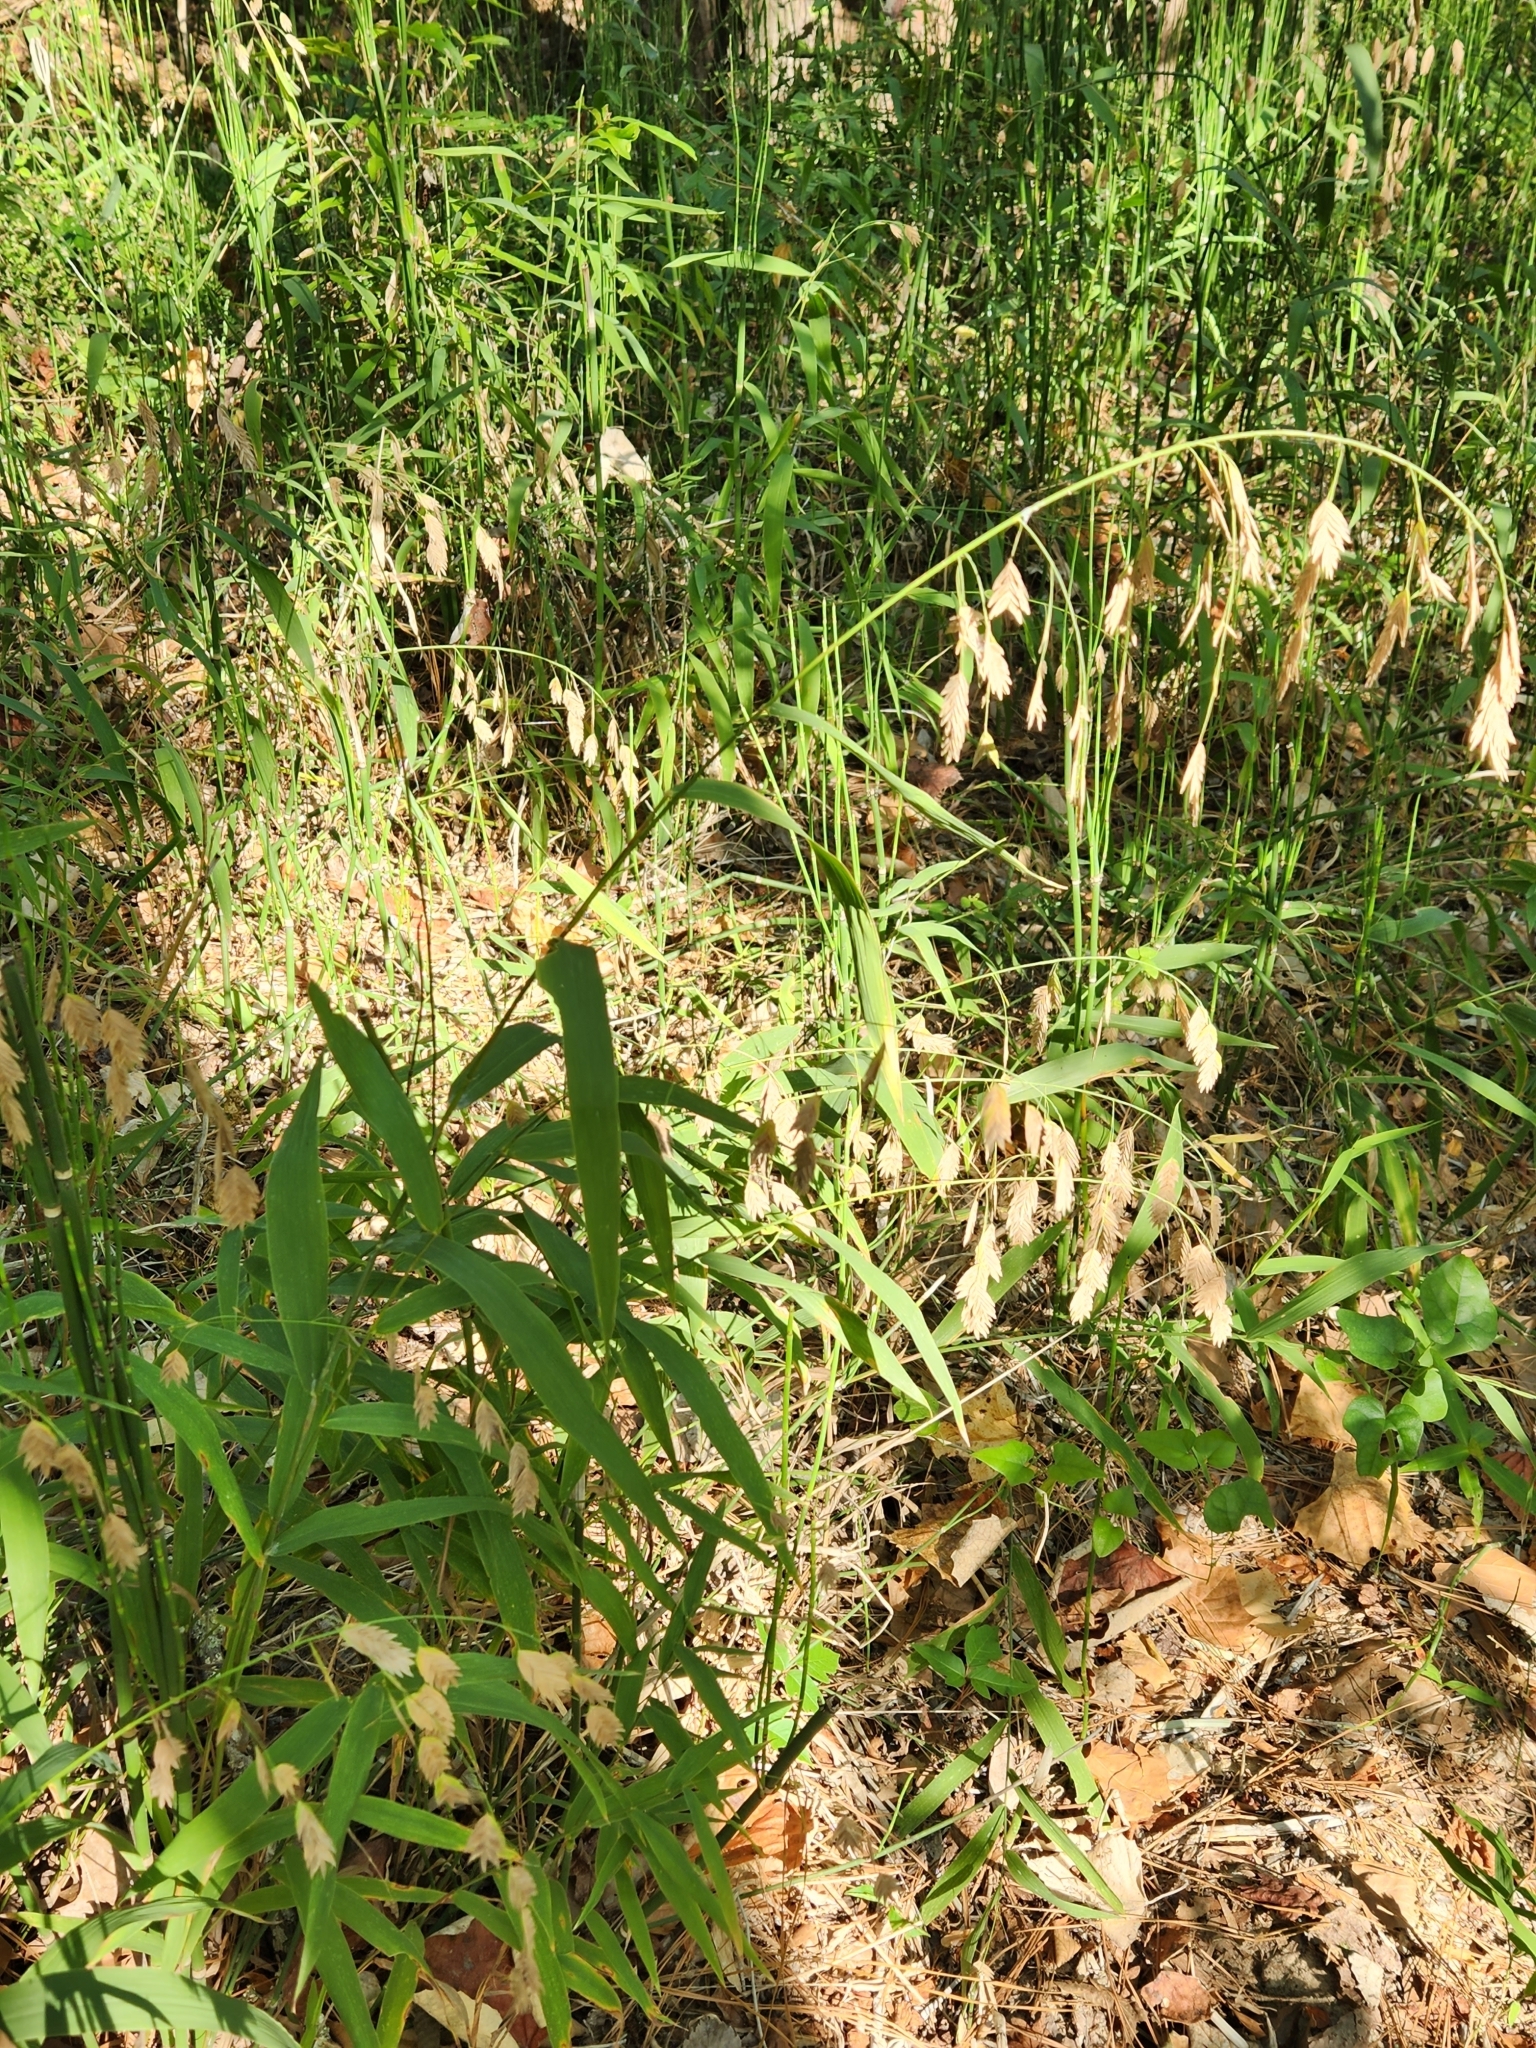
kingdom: Plantae
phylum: Tracheophyta
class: Liliopsida
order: Poales
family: Poaceae
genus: Chasmanthium
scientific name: Chasmanthium latifolium
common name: Broad-leaved chasmanthium
